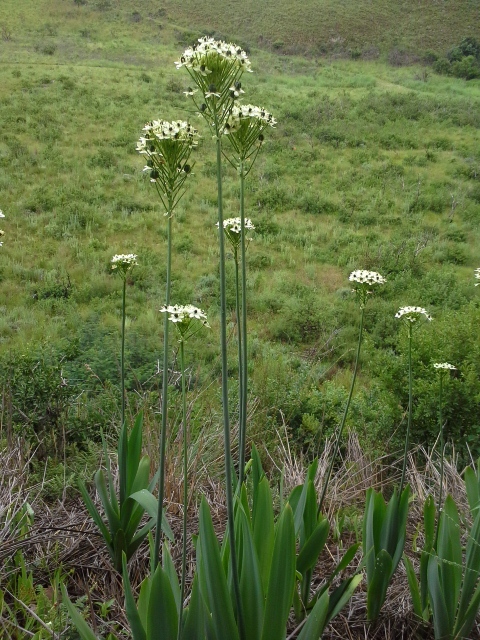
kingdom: Plantae
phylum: Tracheophyta
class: Liliopsida
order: Asparagales
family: Asparagaceae
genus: Ornithogalum
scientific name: Ornithogalum saundersiae
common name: Giant chincherinchee
